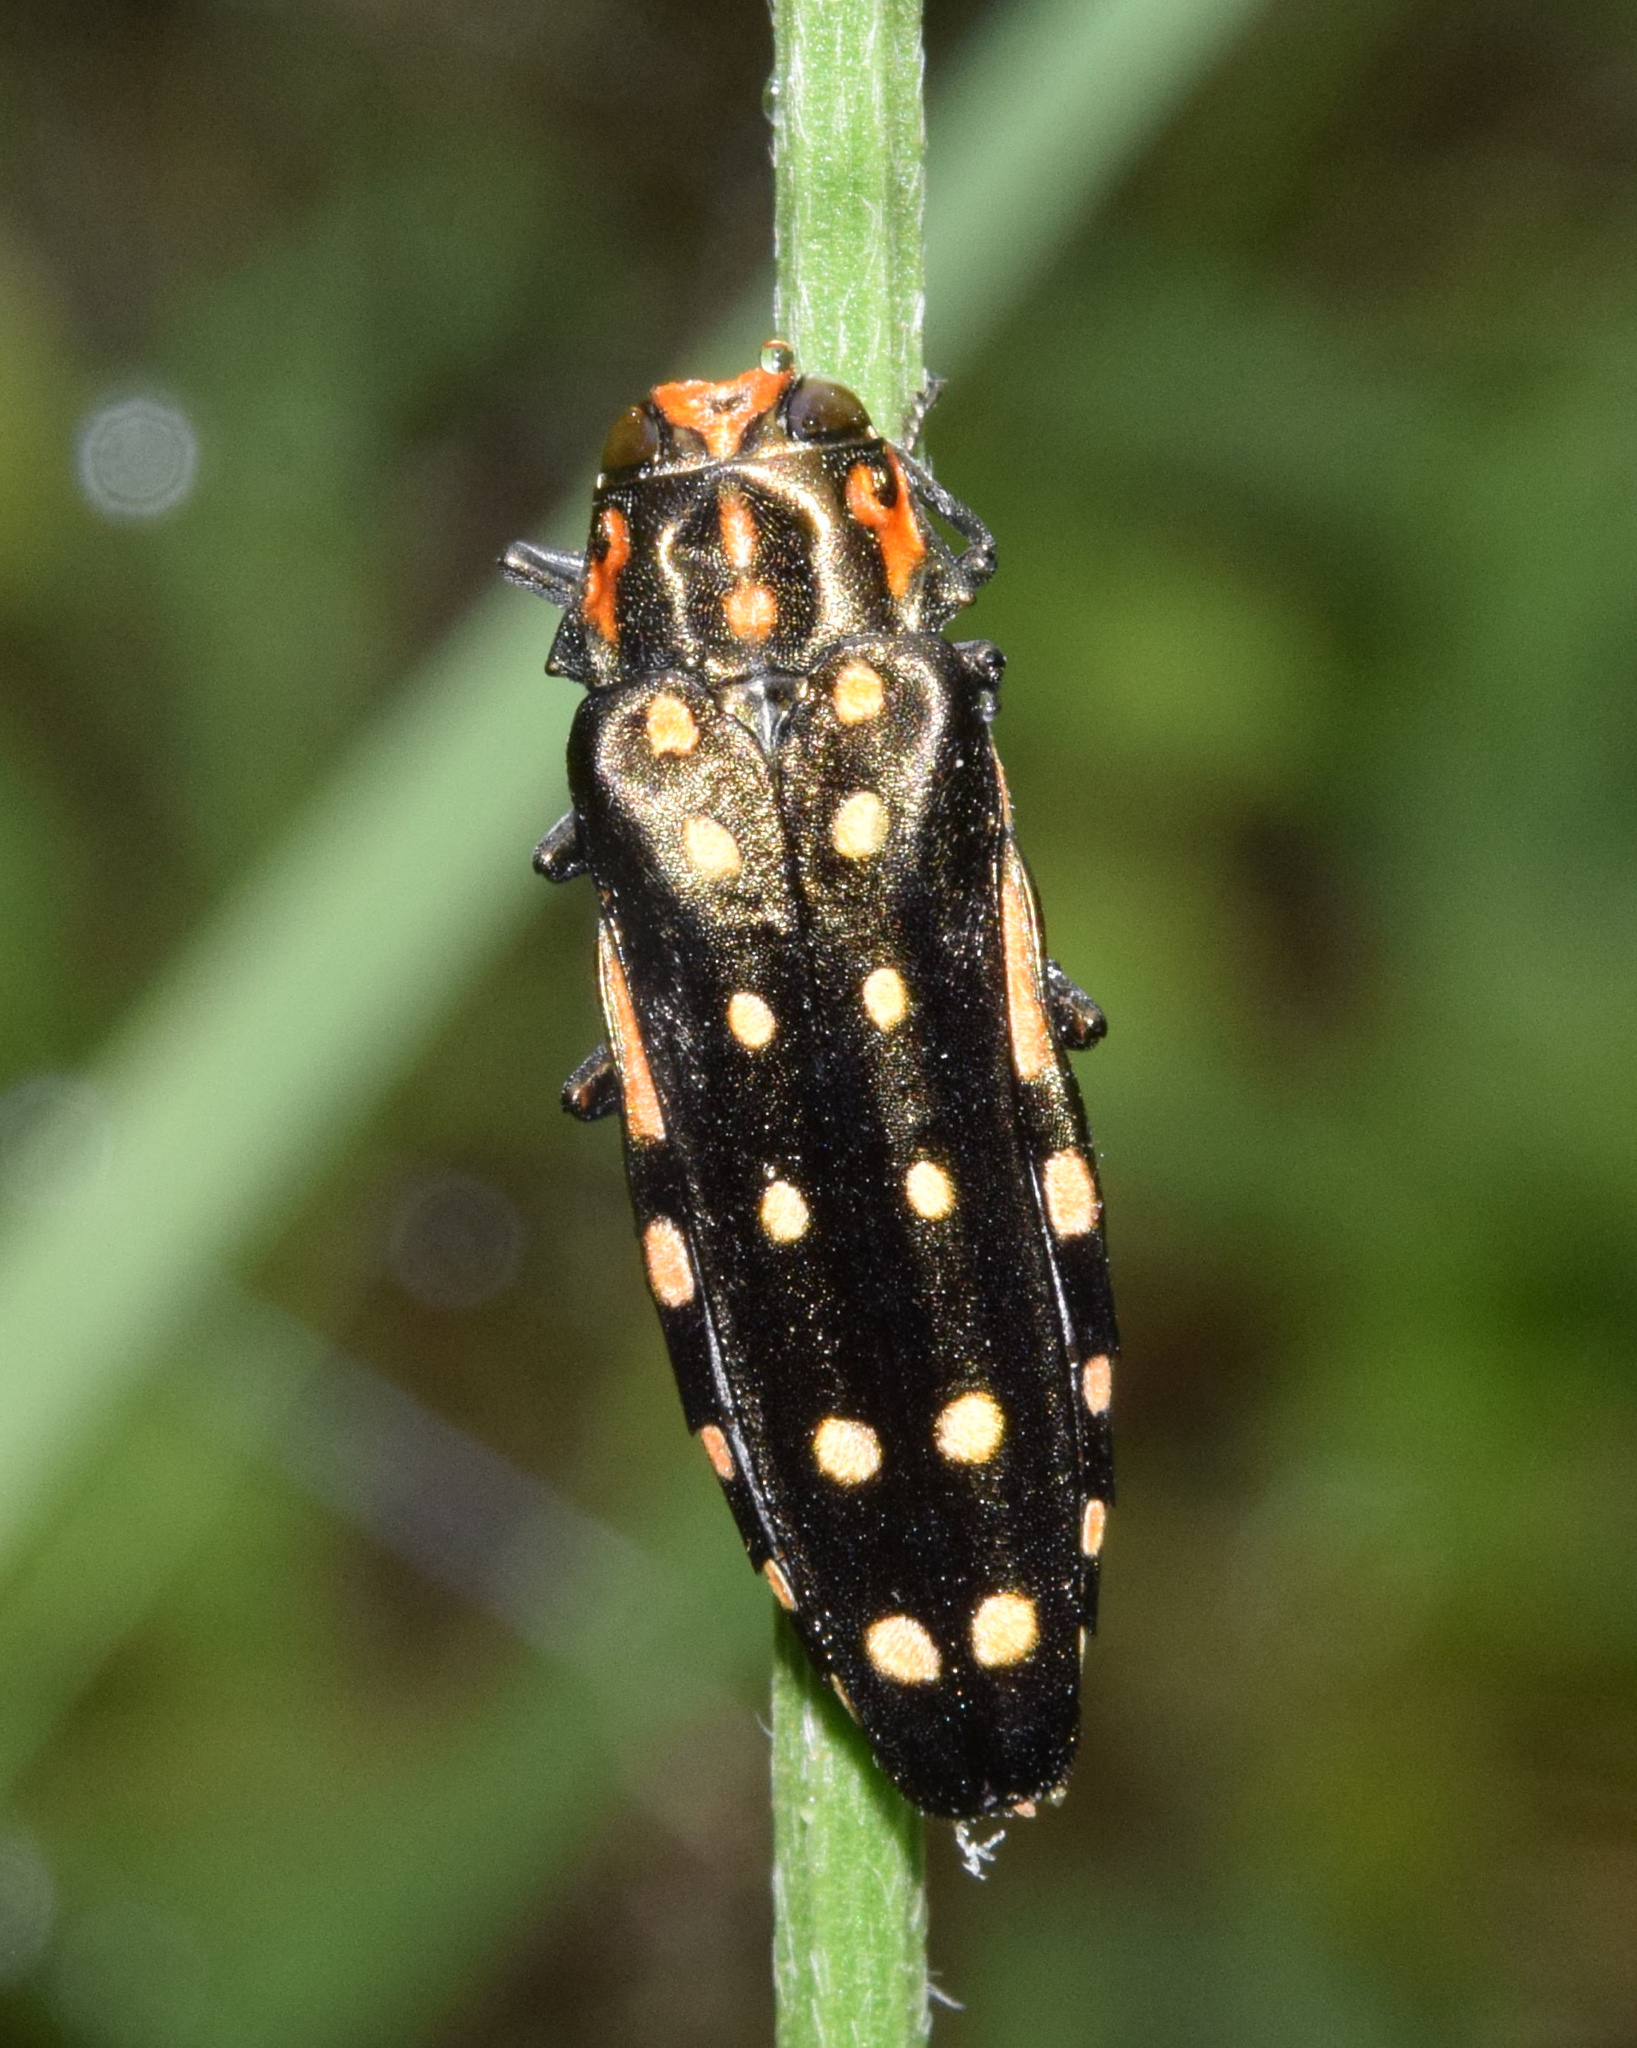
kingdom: Animalia
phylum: Arthropoda
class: Insecta
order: Coleoptera
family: Buprestidae
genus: Agrilus
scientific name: Agrilus grandis
